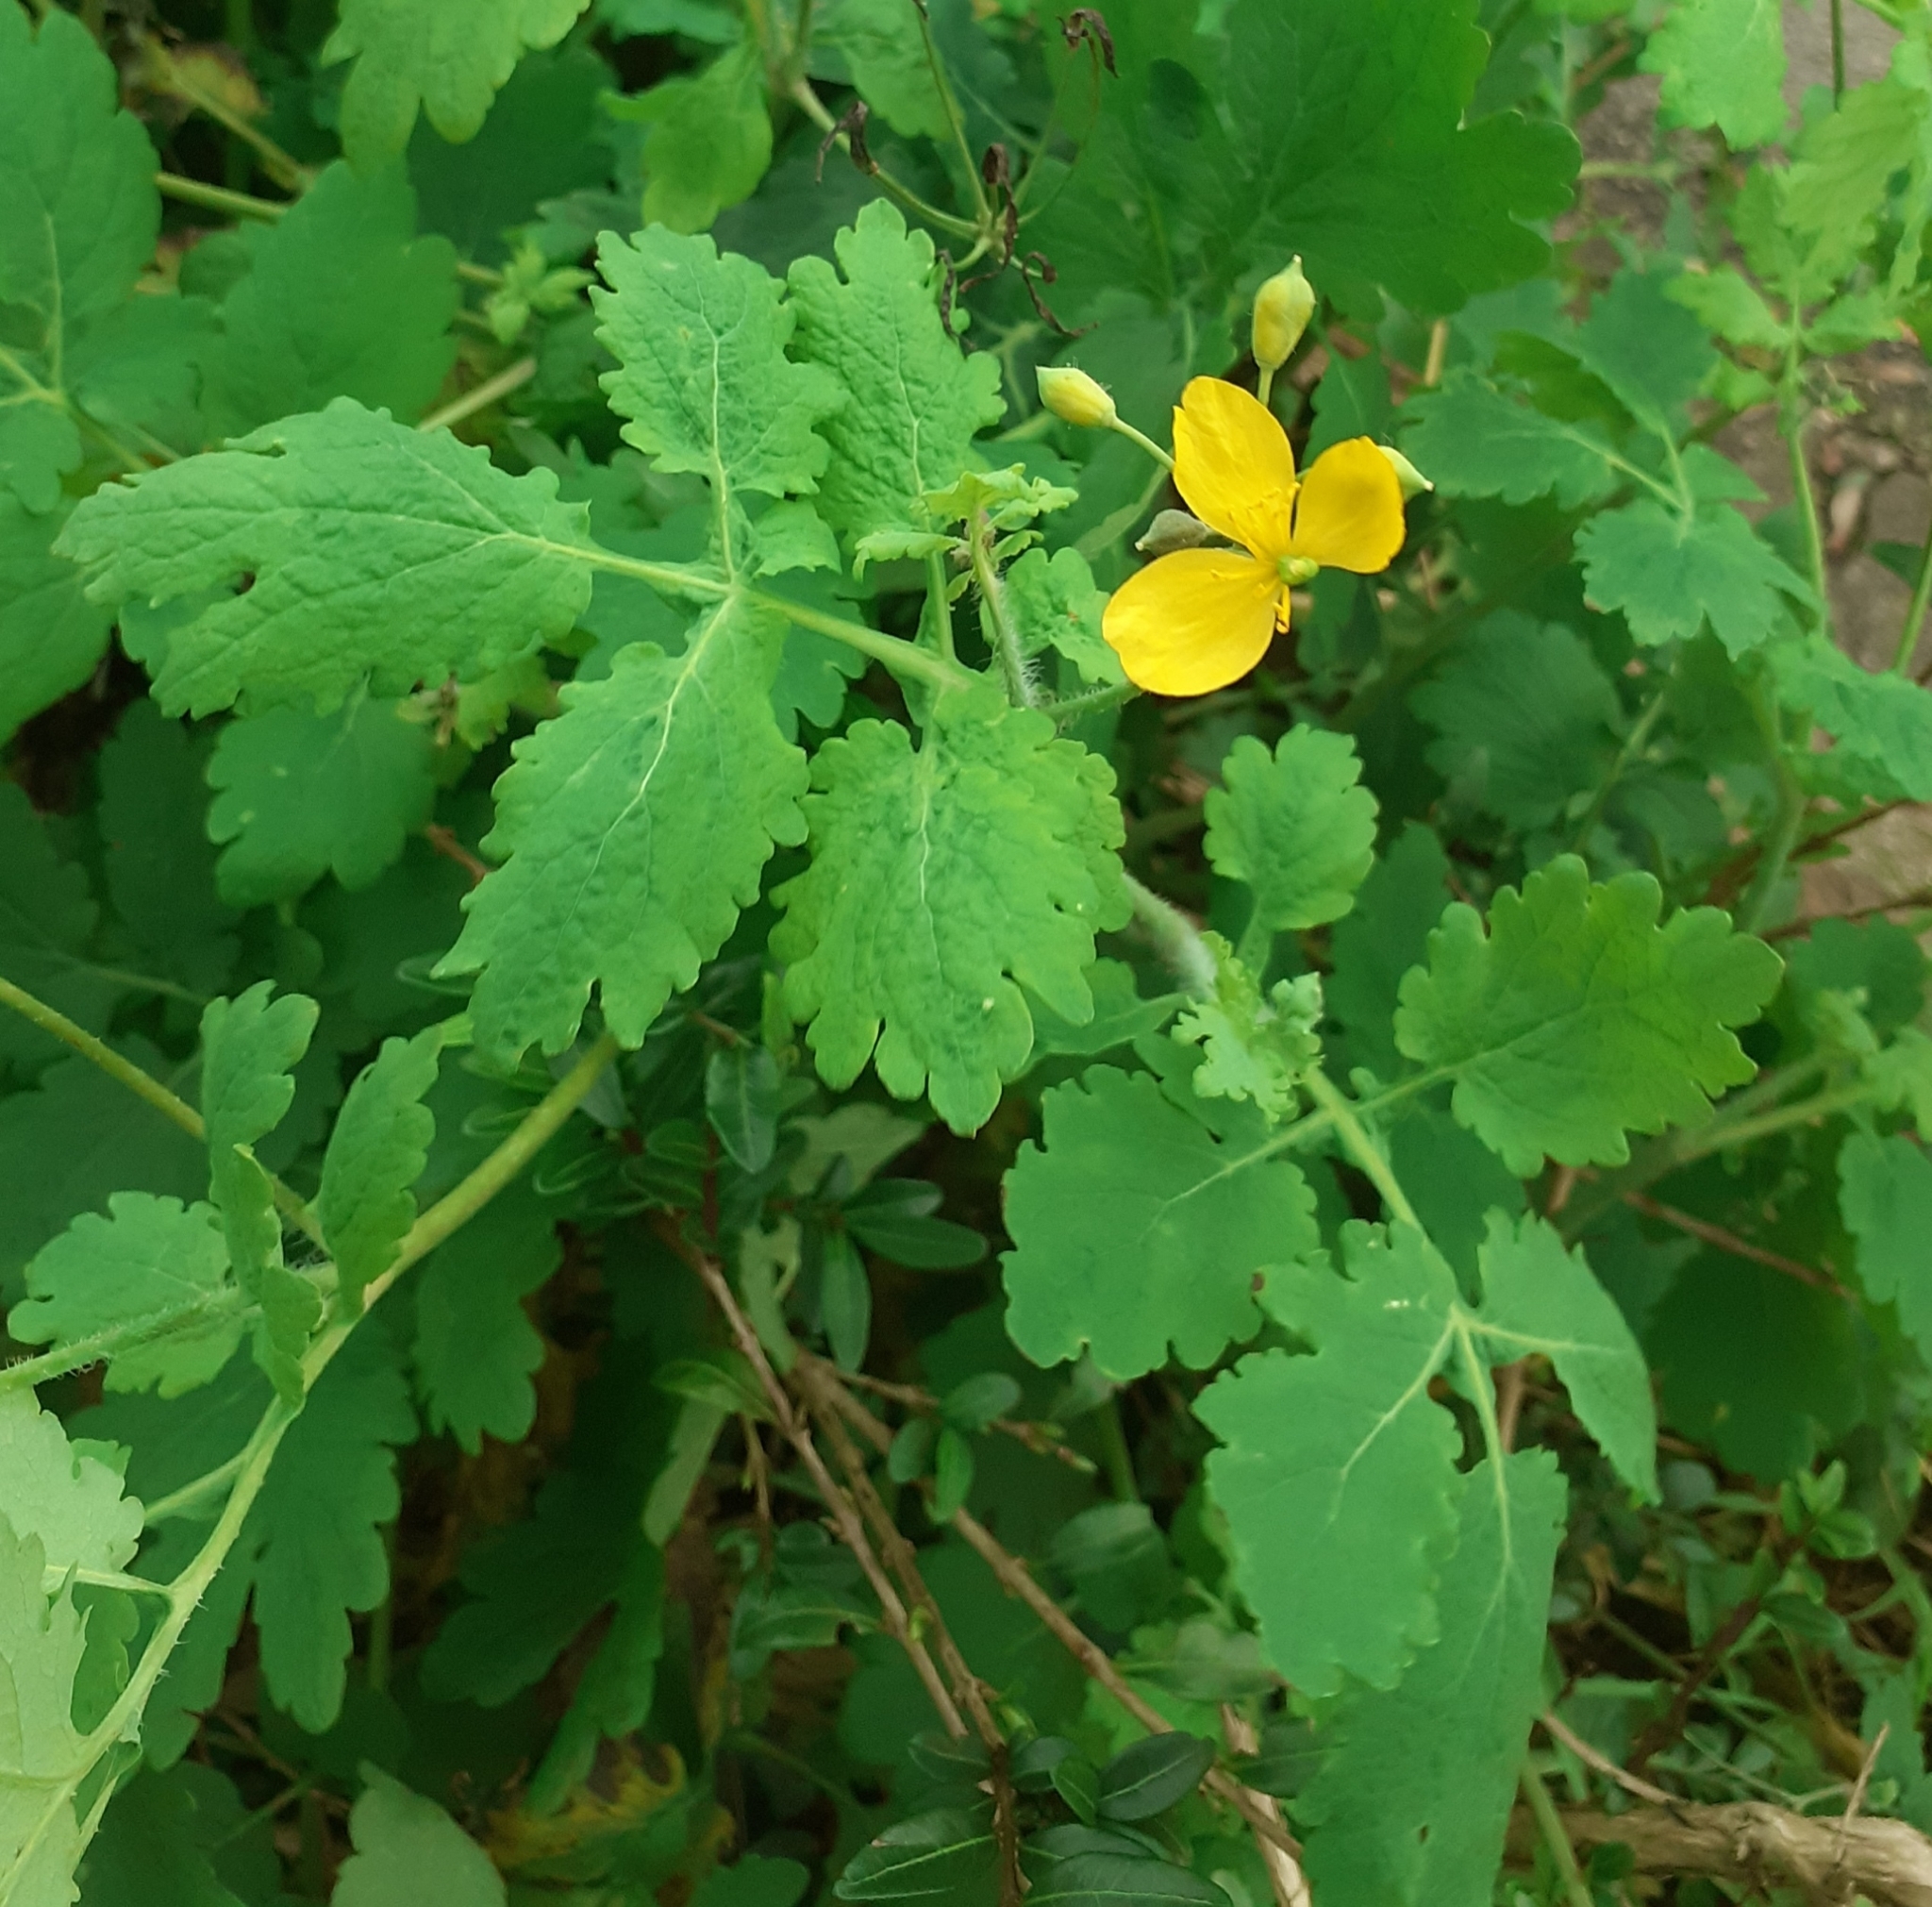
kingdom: Plantae
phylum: Tracheophyta
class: Magnoliopsida
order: Ranunculales
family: Papaveraceae
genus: Chelidonium
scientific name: Chelidonium majus
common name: Greater celandine
